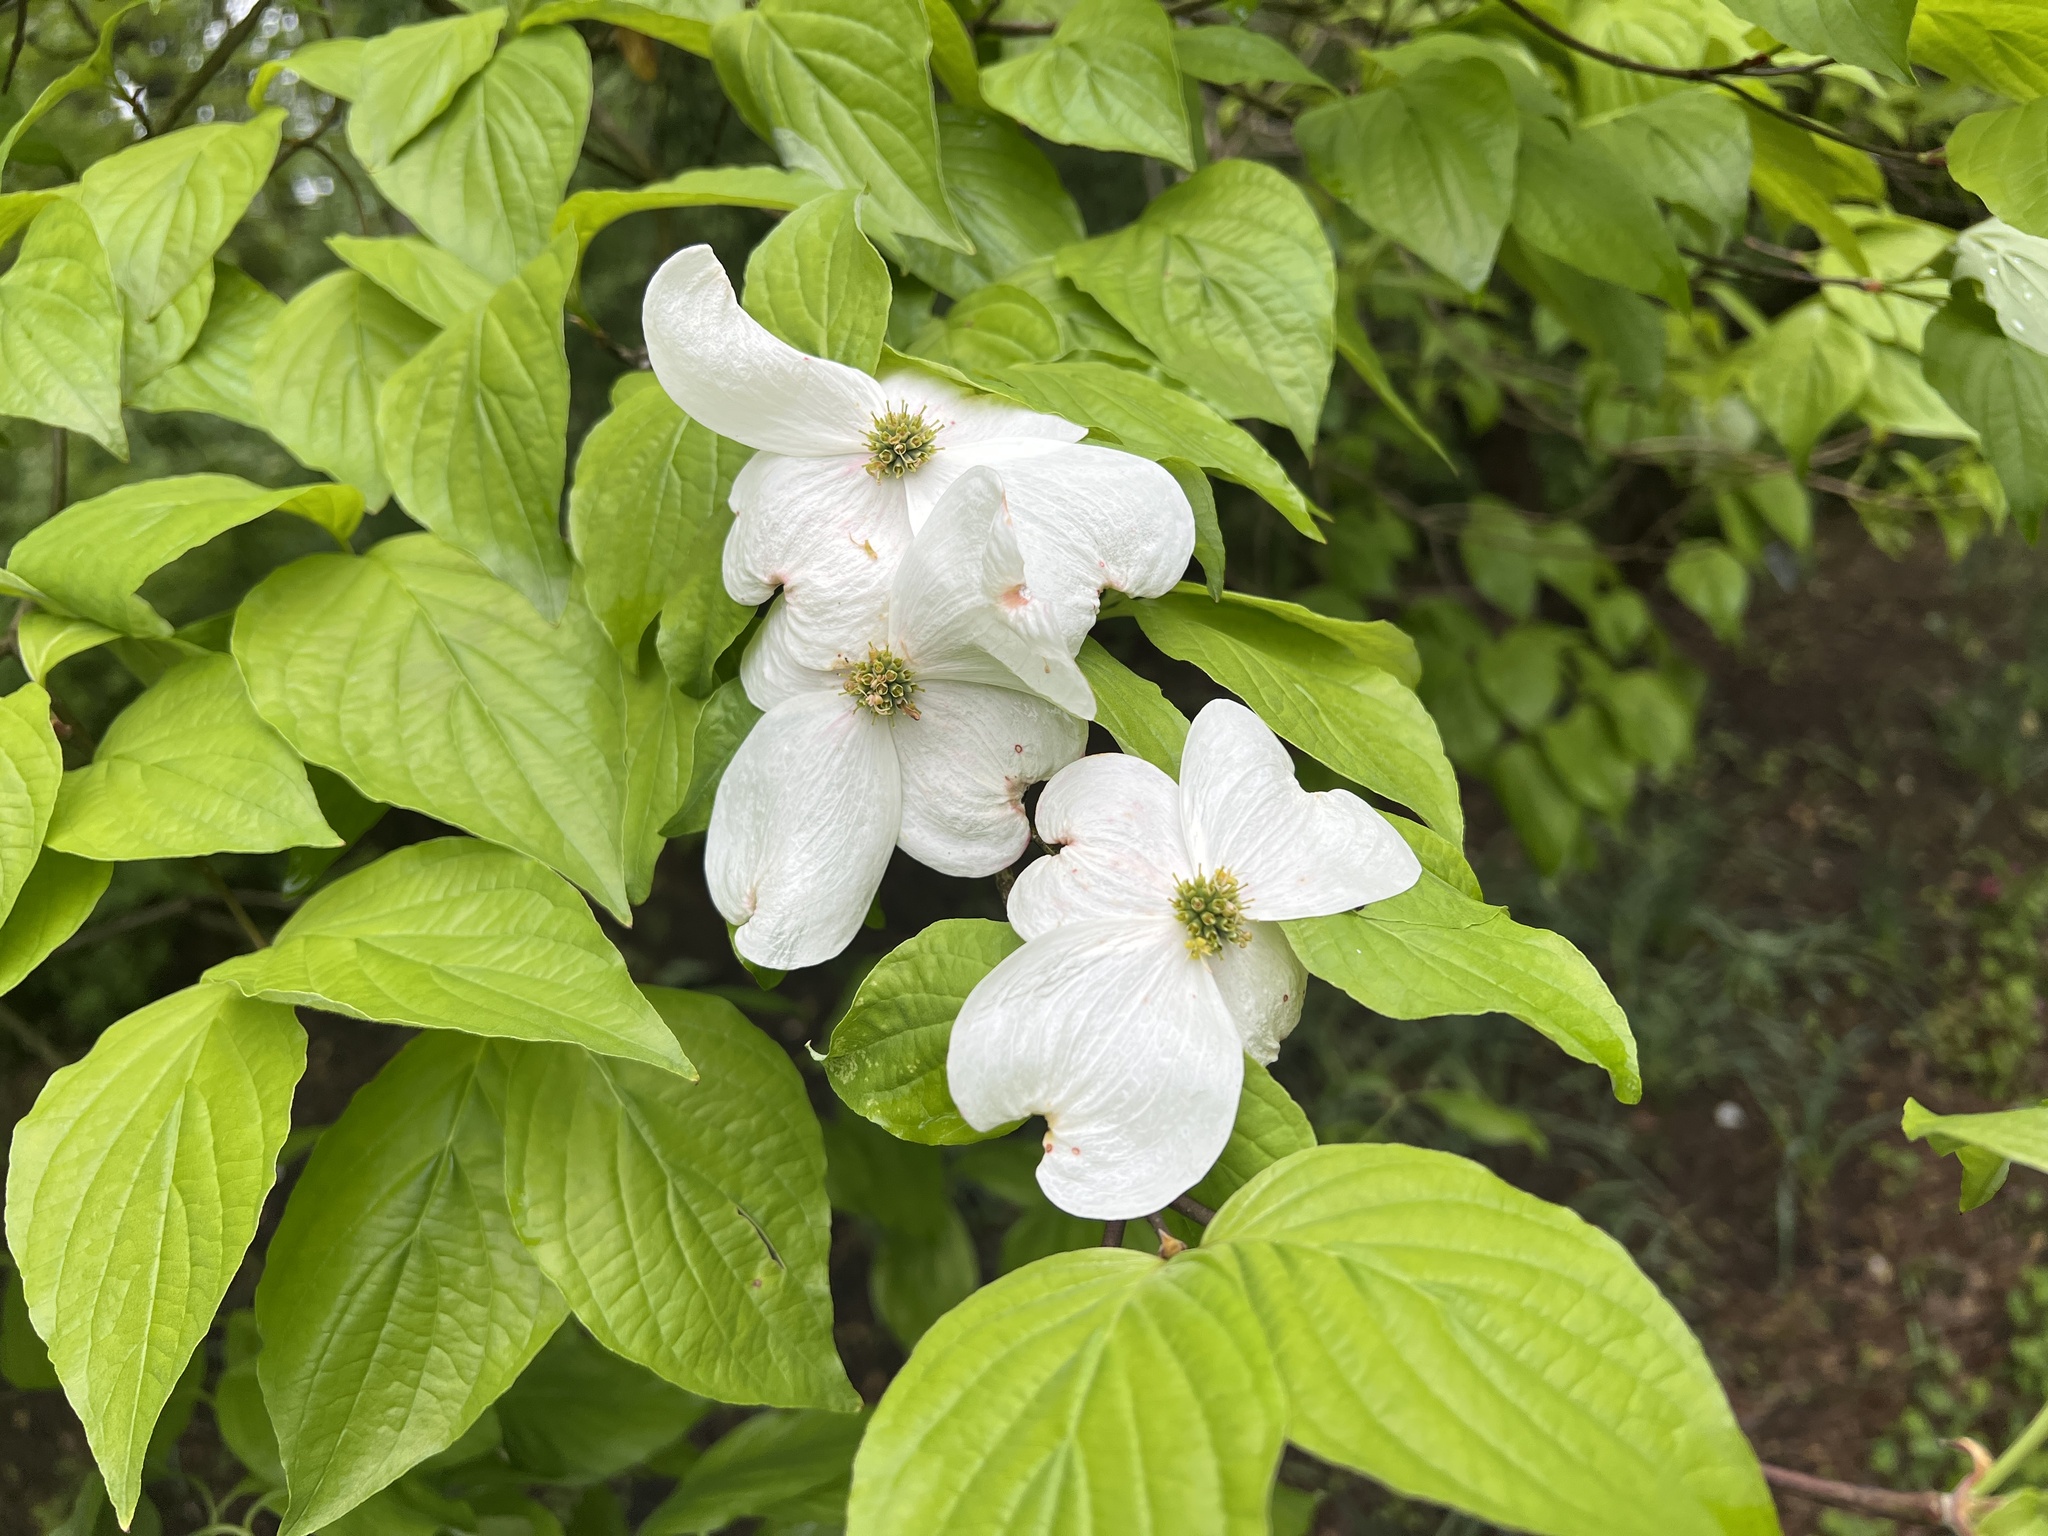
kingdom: Plantae
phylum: Tracheophyta
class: Magnoliopsida
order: Cornales
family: Cornaceae
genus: Cornus
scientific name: Cornus florida
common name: Flowering dogwood
